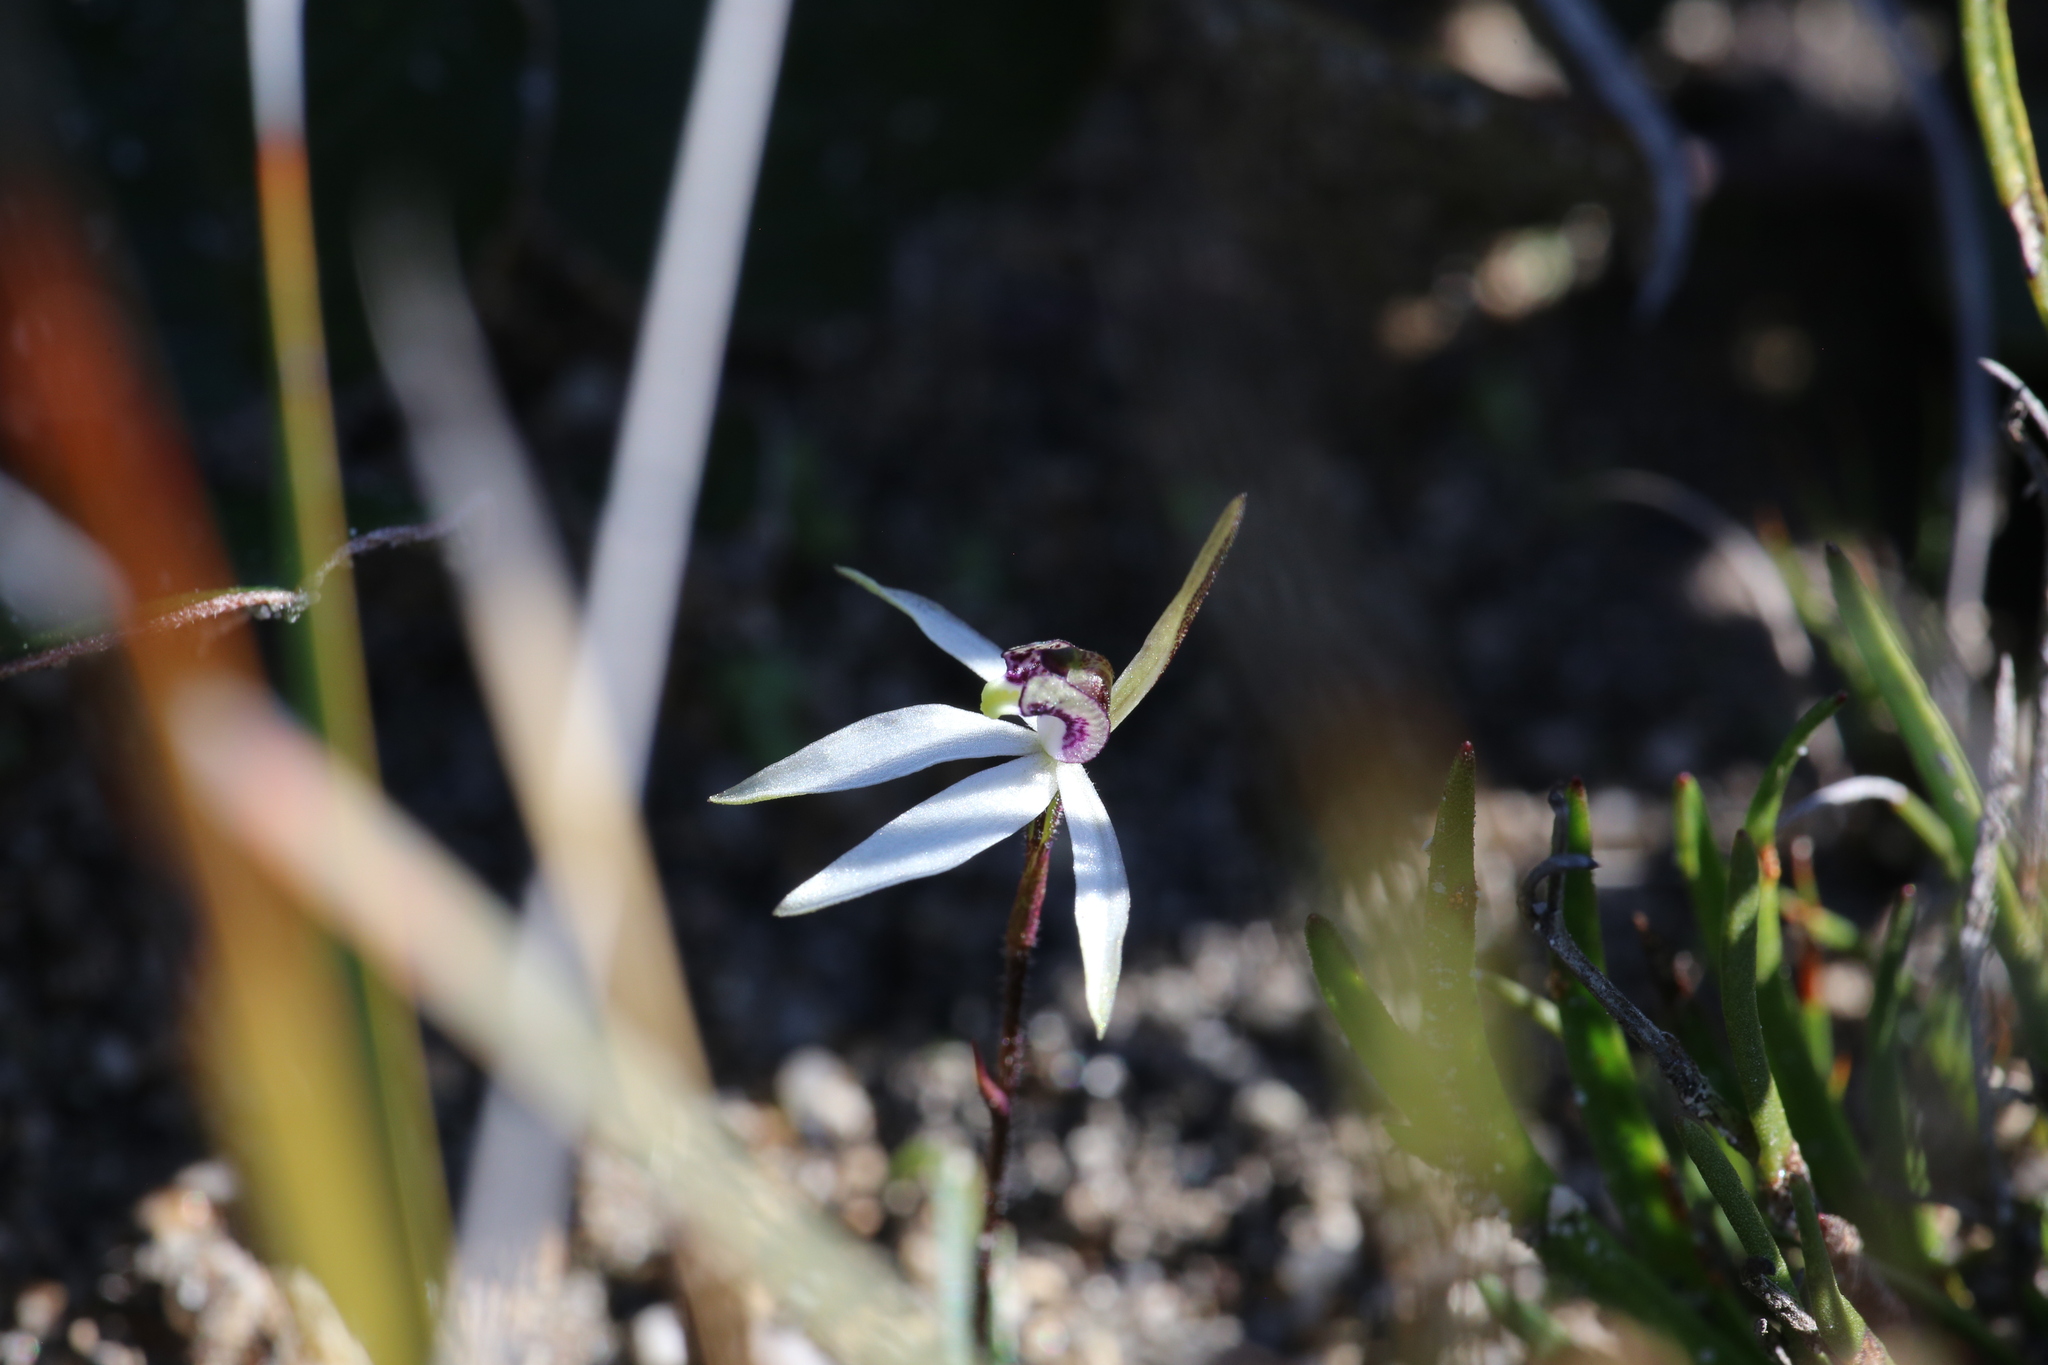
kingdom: Plantae
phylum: Tracheophyta
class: Liliopsida
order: Asparagales
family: Orchidaceae
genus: Caladenia
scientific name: Caladenia saccharata
